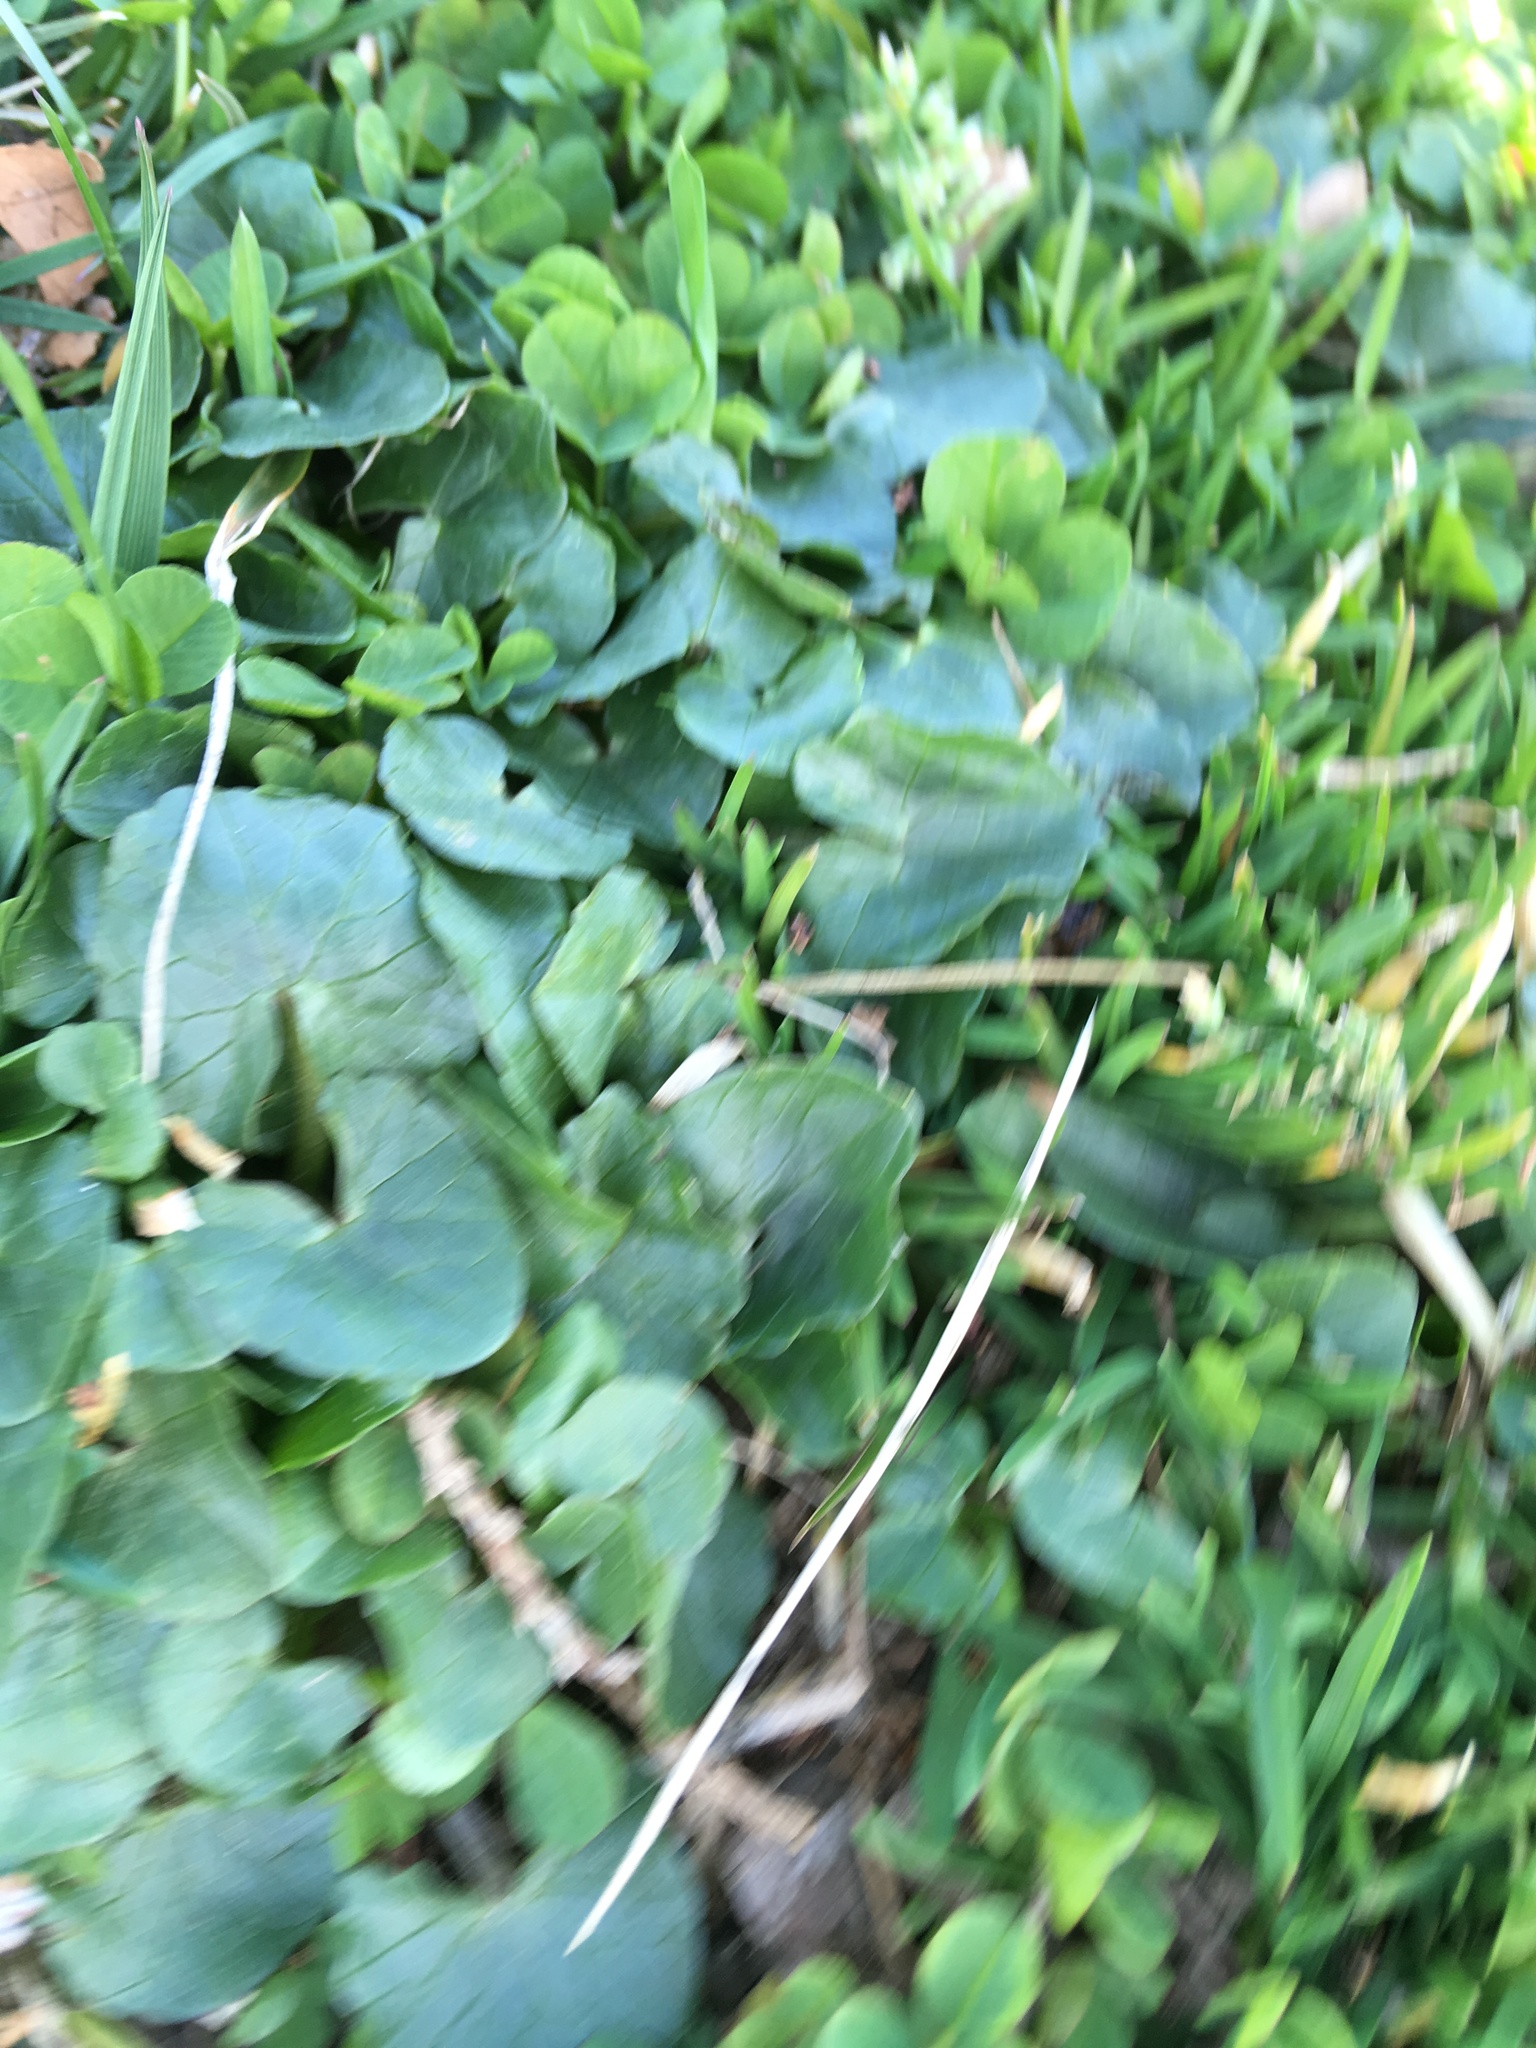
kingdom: Plantae
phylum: Tracheophyta
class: Magnoliopsida
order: Ranunculales
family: Ranunculaceae
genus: Ficaria
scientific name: Ficaria verna
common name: Lesser celandine
